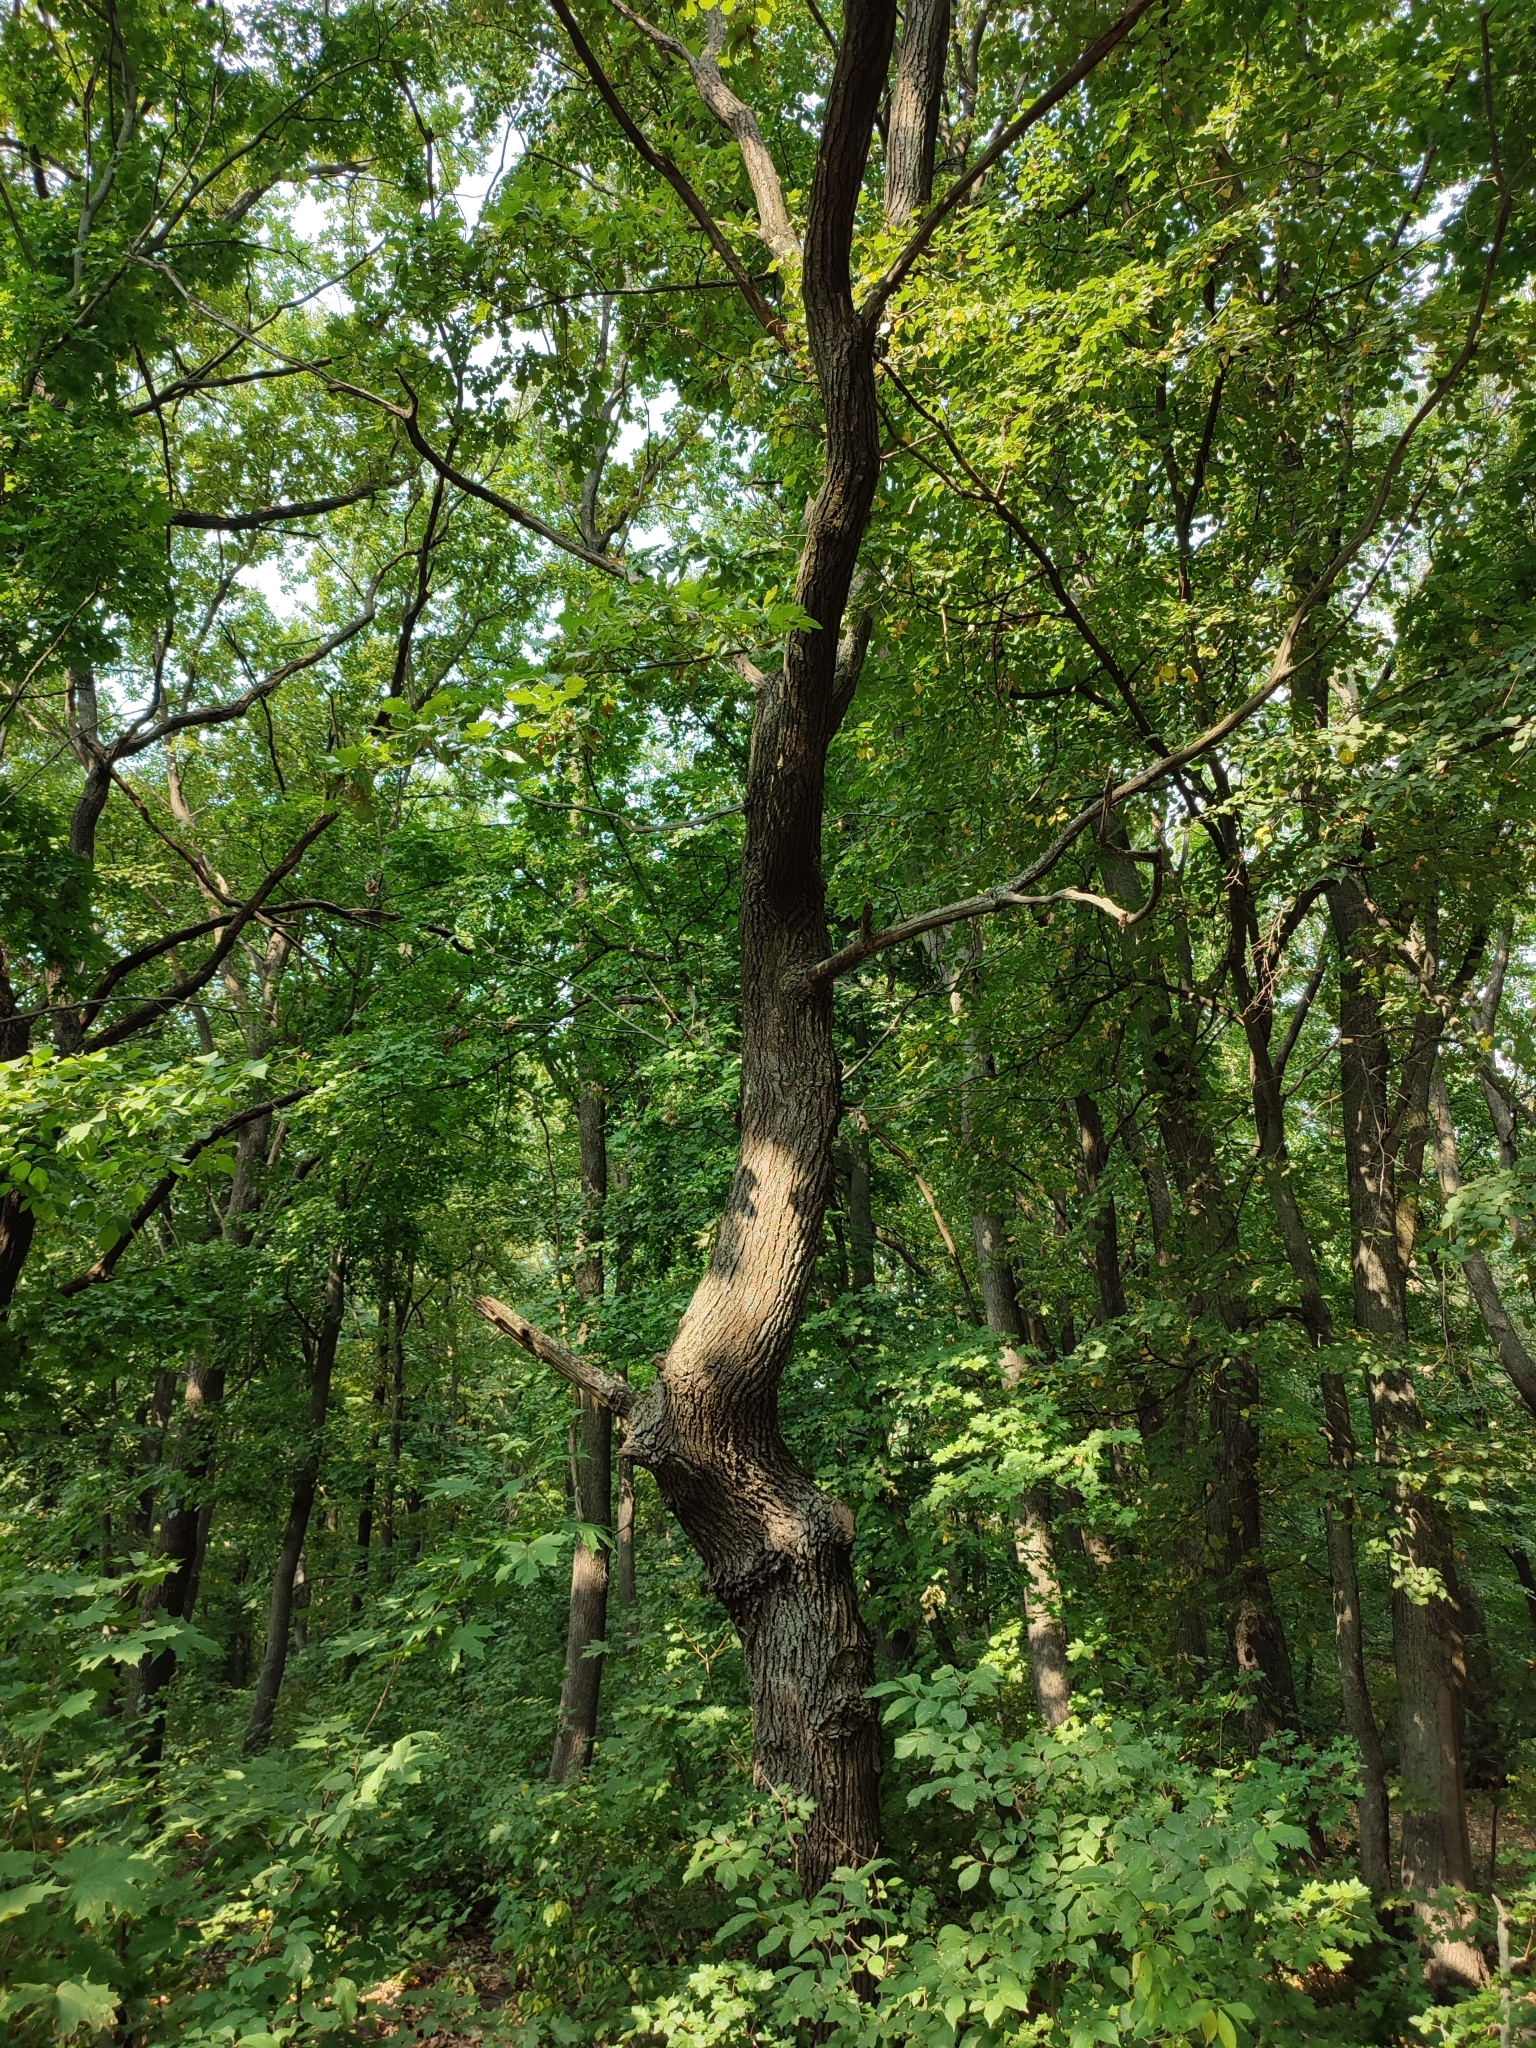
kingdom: Plantae
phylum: Tracheophyta
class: Magnoliopsida
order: Fagales
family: Fagaceae
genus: Quercus
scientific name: Quercus robur
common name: Pedunculate oak
